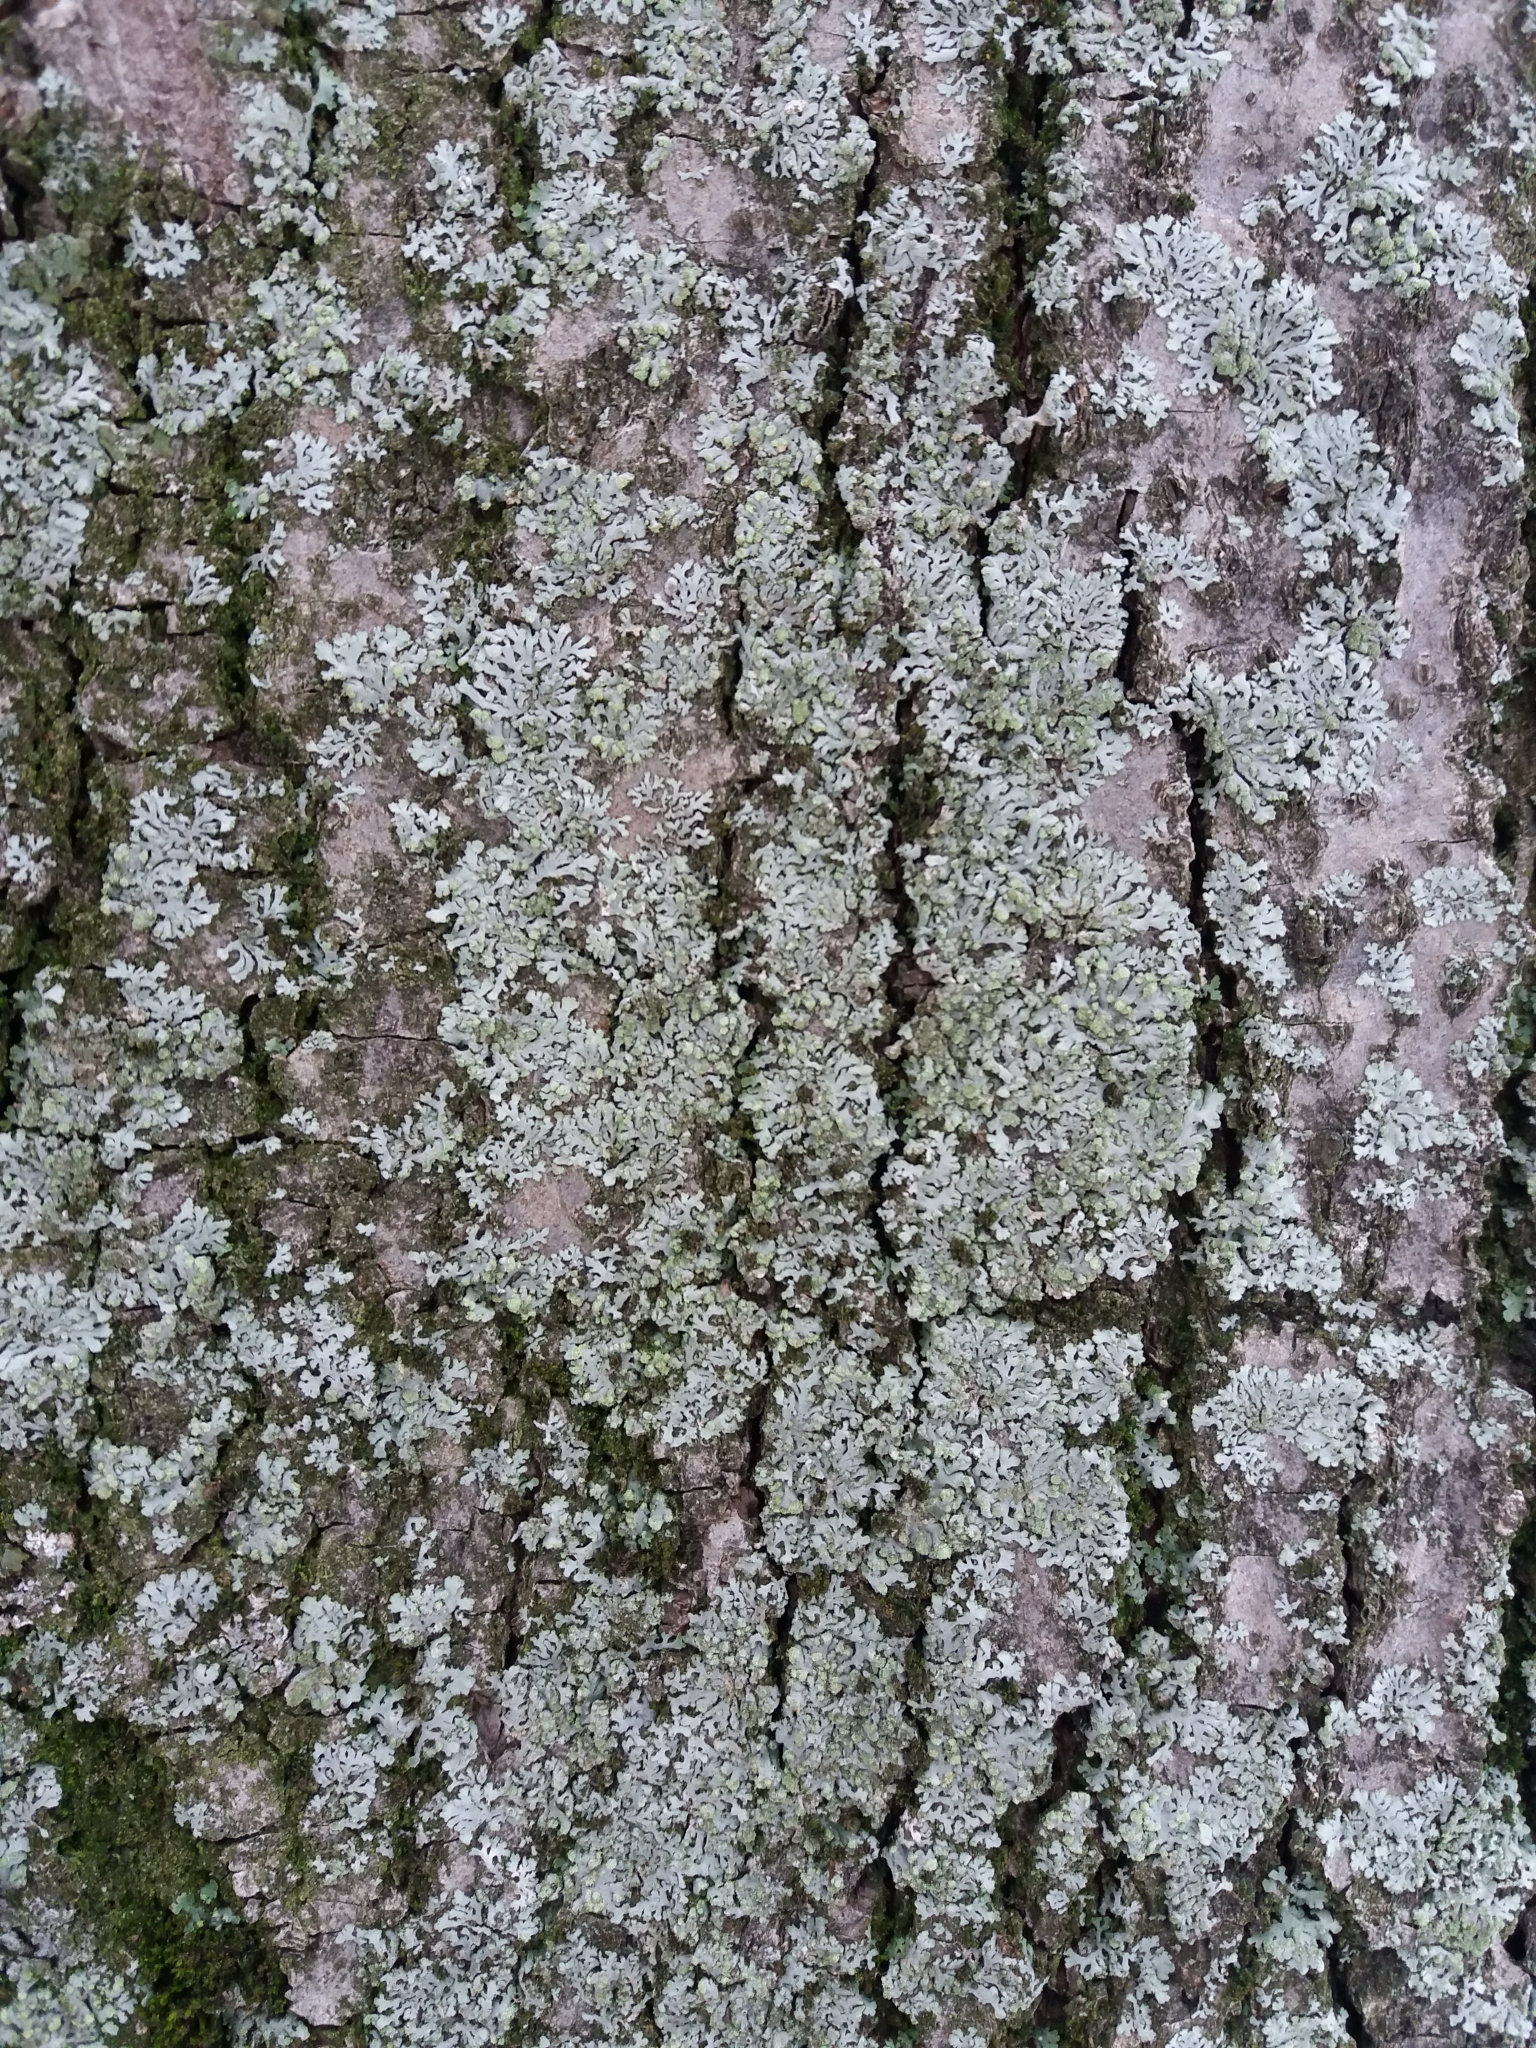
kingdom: Fungi
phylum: Ascomycota
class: Lecanoromycetes
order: Caliciales
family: Physciaceae
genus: Phaeophyscia
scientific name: Phaeophyscia orbicularis
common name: Mealy shadow lichen
